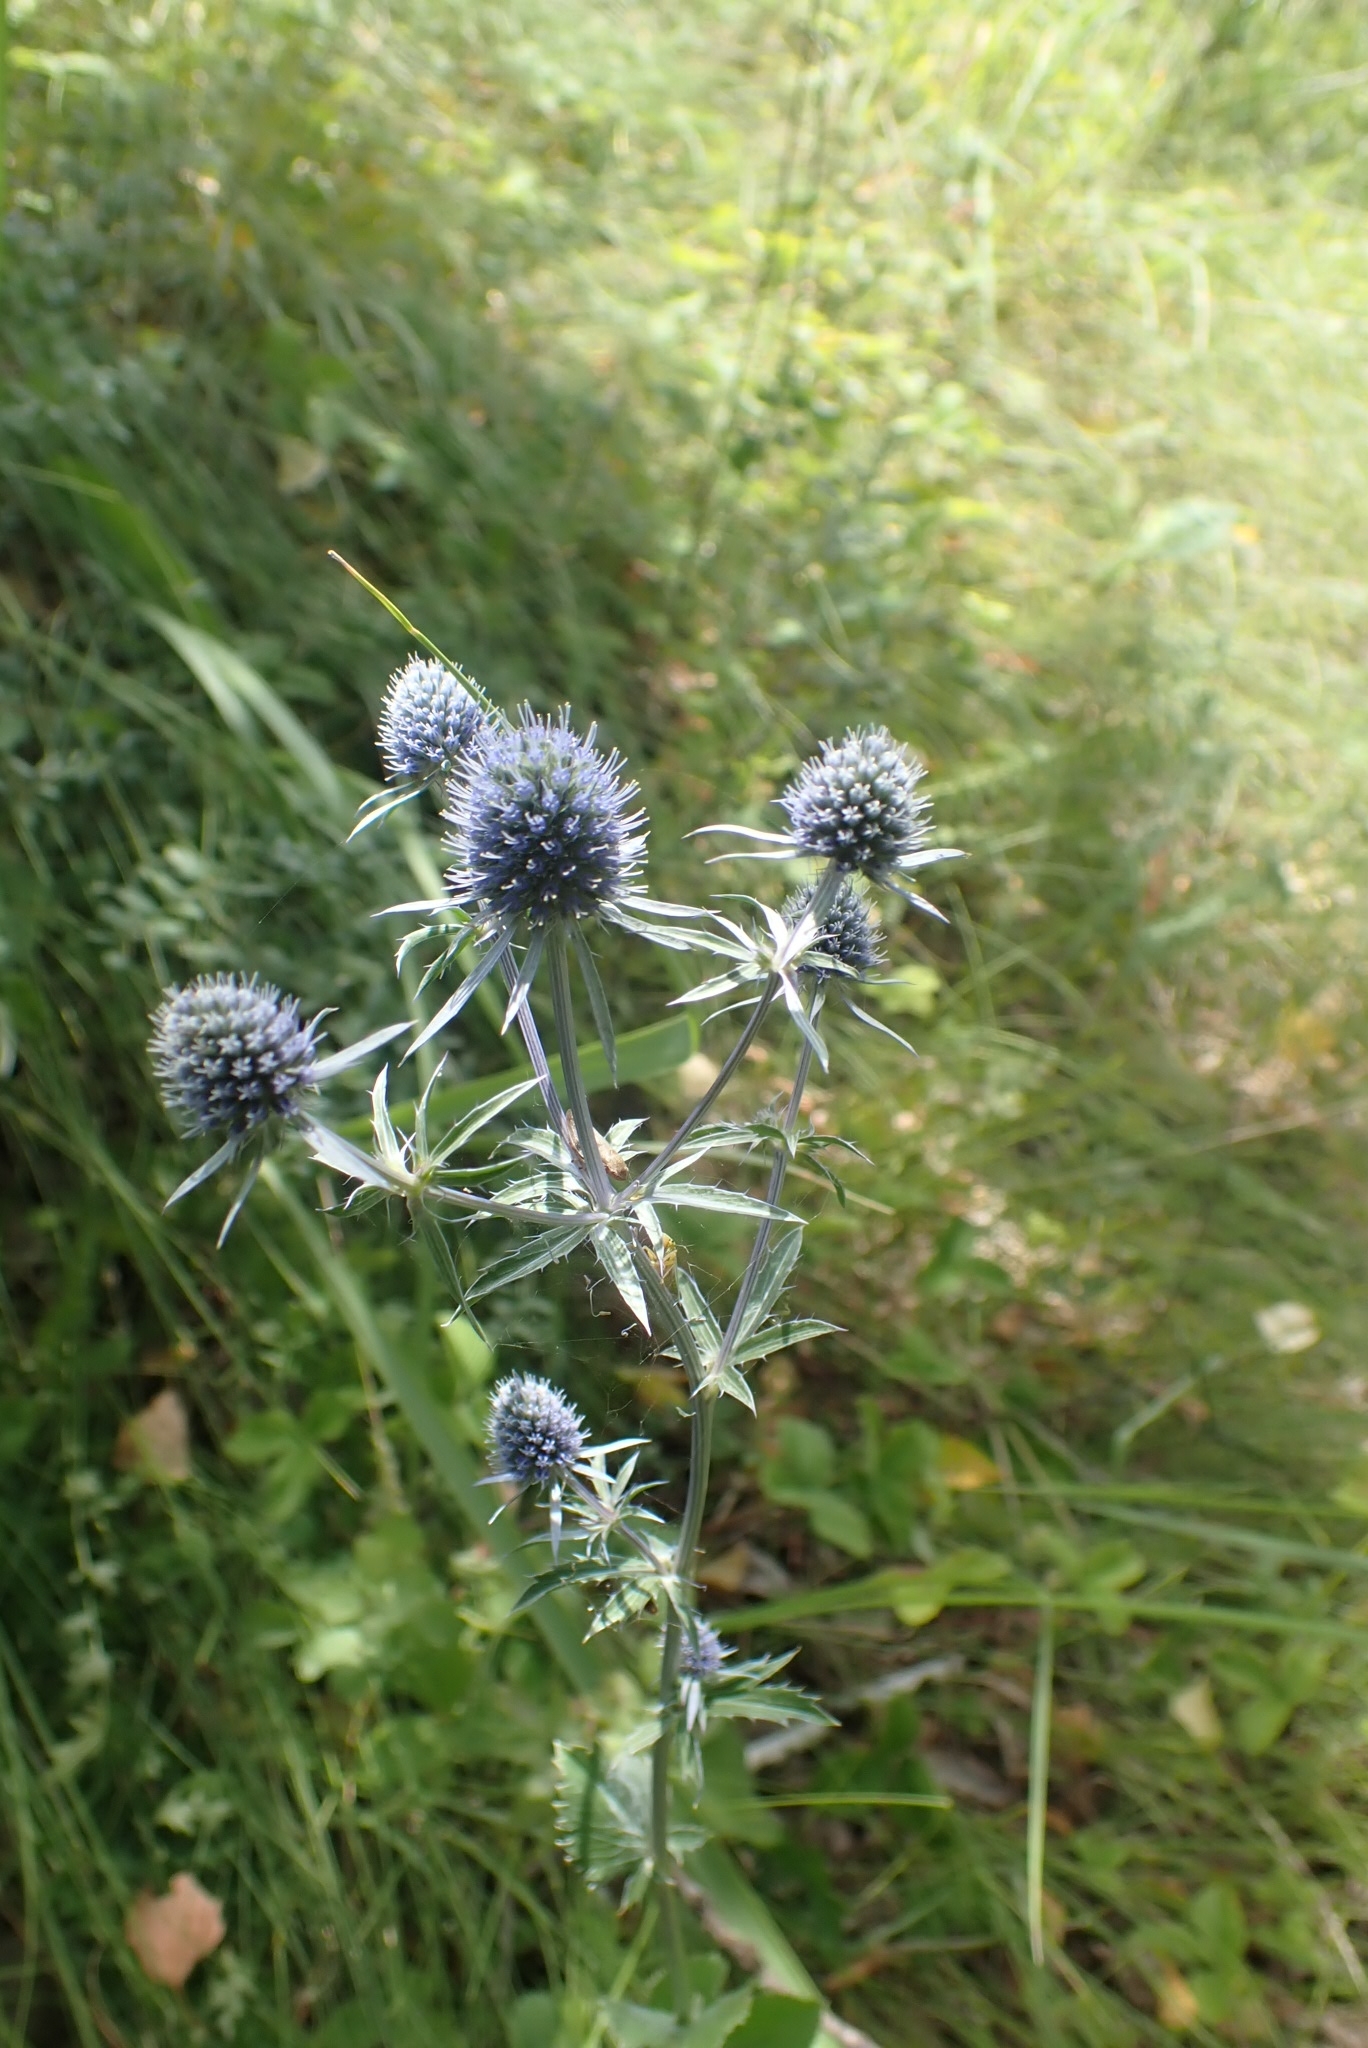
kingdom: Plantae
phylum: Tracheophyta
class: Magnoliopsida
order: Apiales
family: Apiaceae
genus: Eryngium
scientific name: Eryngium planum
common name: Blue eryngo
